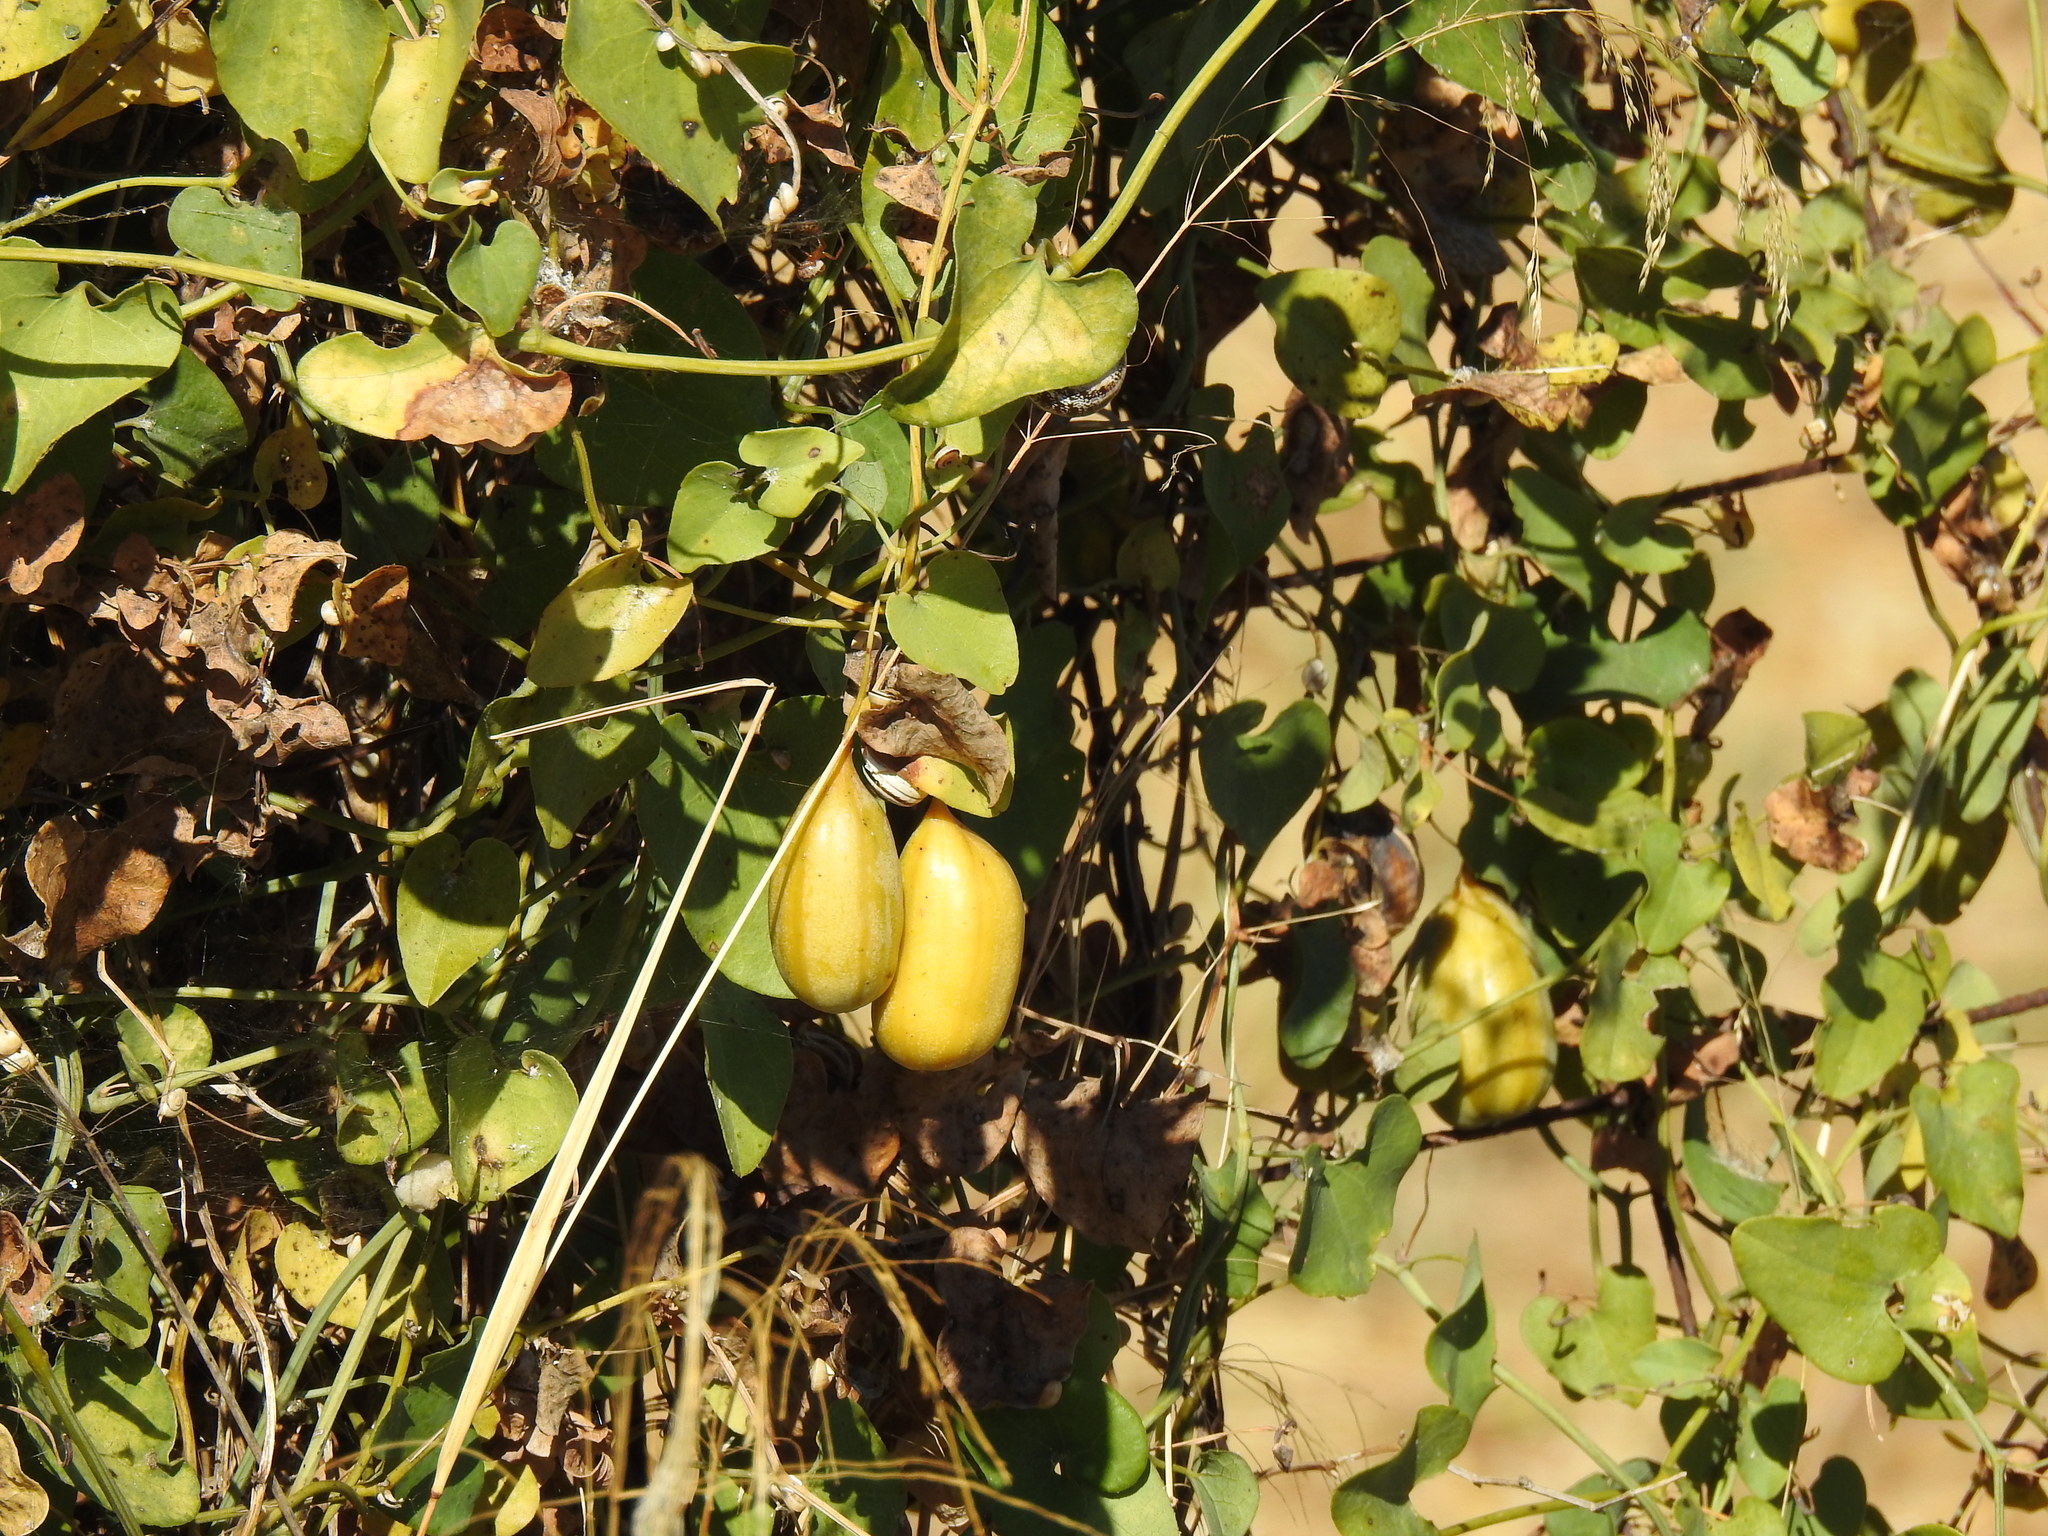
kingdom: Plantae
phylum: Tracheophyta
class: Magnoliopsida
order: Piperales
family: Aristolochiaceae
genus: Aristolochia
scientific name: Aristolochia baetica
